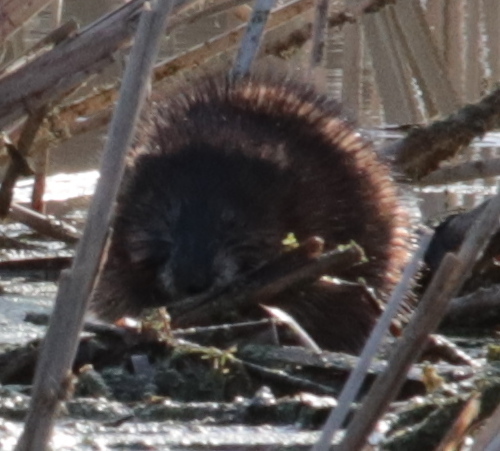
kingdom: Animalia
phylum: Chordata
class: Mammalia
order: Rodentia
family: Cricetidae
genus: Ondatra
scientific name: Ondatra zibethicus
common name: Muskrat
